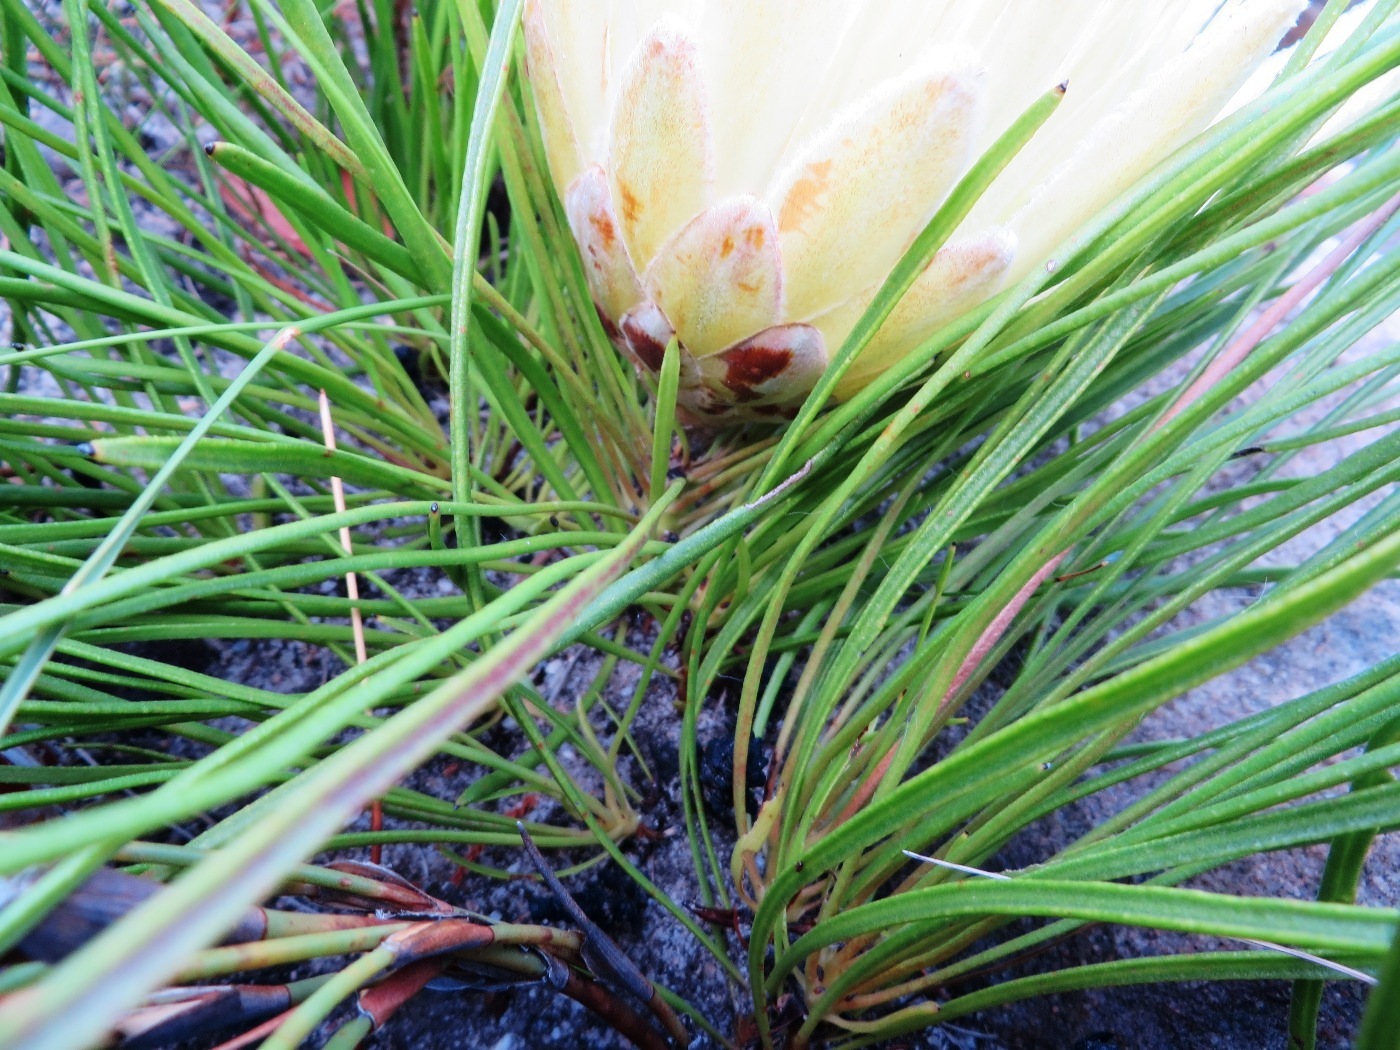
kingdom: Plantae
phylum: Tracheophyta
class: Magnoliopsida
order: Proteales
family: Proteaceae
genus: Protea
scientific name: Protea scorzonerifolia
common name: Channel-leaf sugarbush
